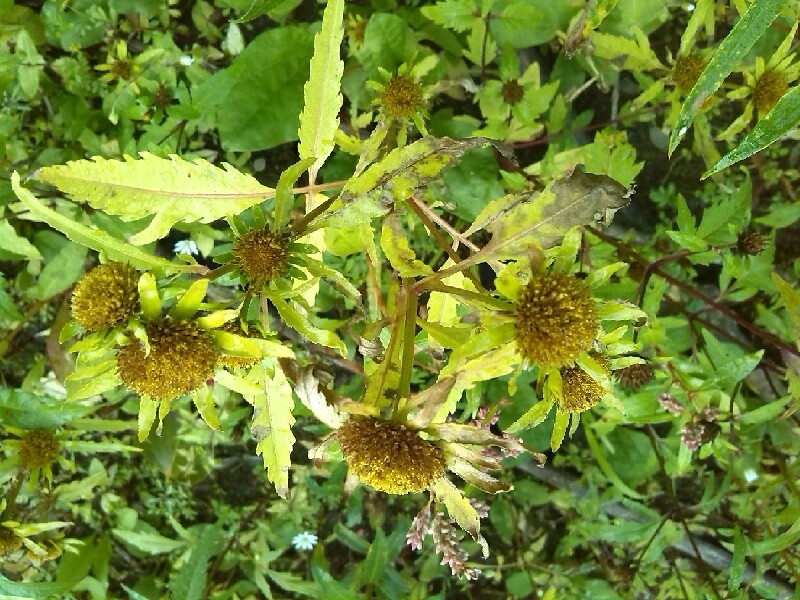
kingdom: Plantae
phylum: Tracheophyta
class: Magnoliopsida
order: Asterales
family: Asteraceae
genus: Bidens
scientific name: Bidens radiata
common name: Radiating bur-marigold
